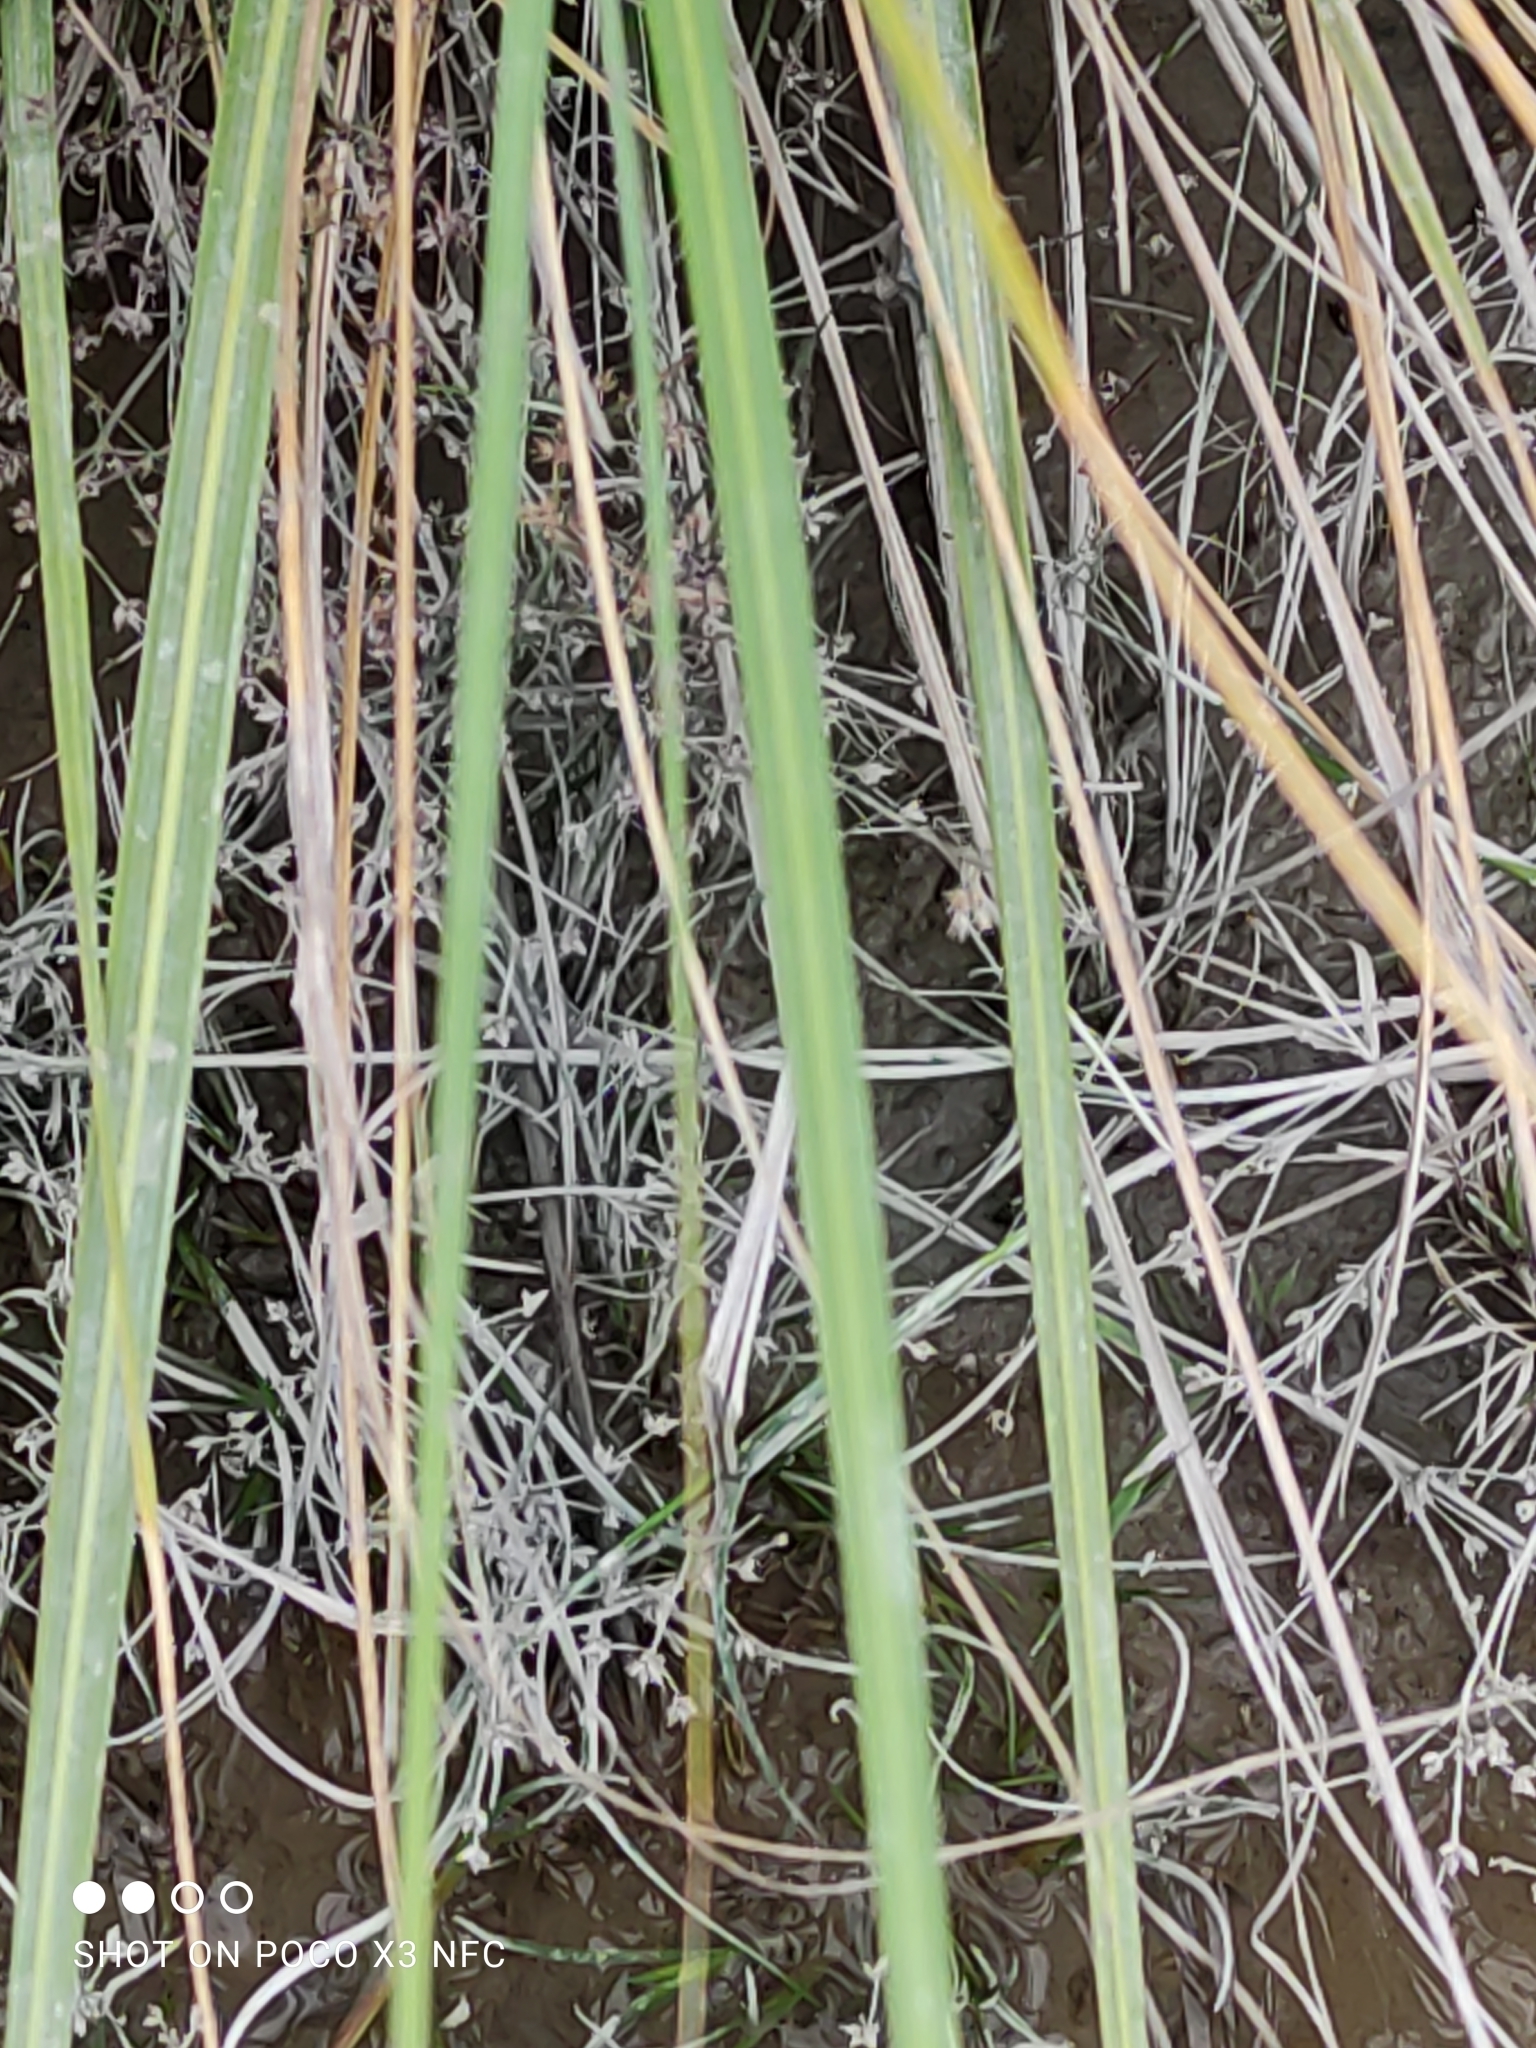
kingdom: Plantae
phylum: Tracheophyta
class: Liliopsida
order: Poales
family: Poaceae
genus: Austroderia
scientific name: Austroderia richardii
